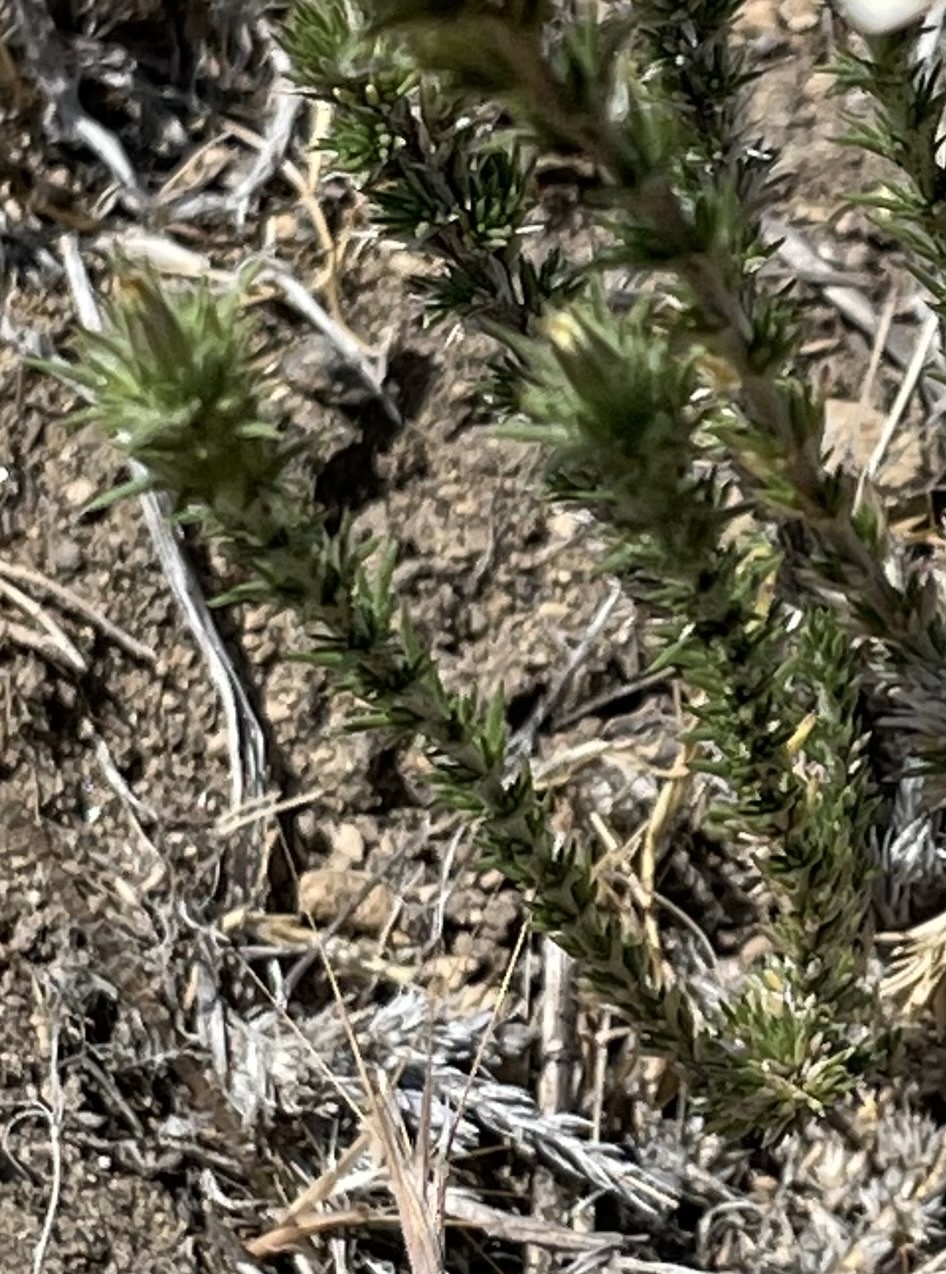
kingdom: Plantae
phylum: Tracheophyta
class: Magnoliopsida
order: Ericales
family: Polemoniaceae
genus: Linanthus
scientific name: Linanthus pungens
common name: Granite prickly phlox
